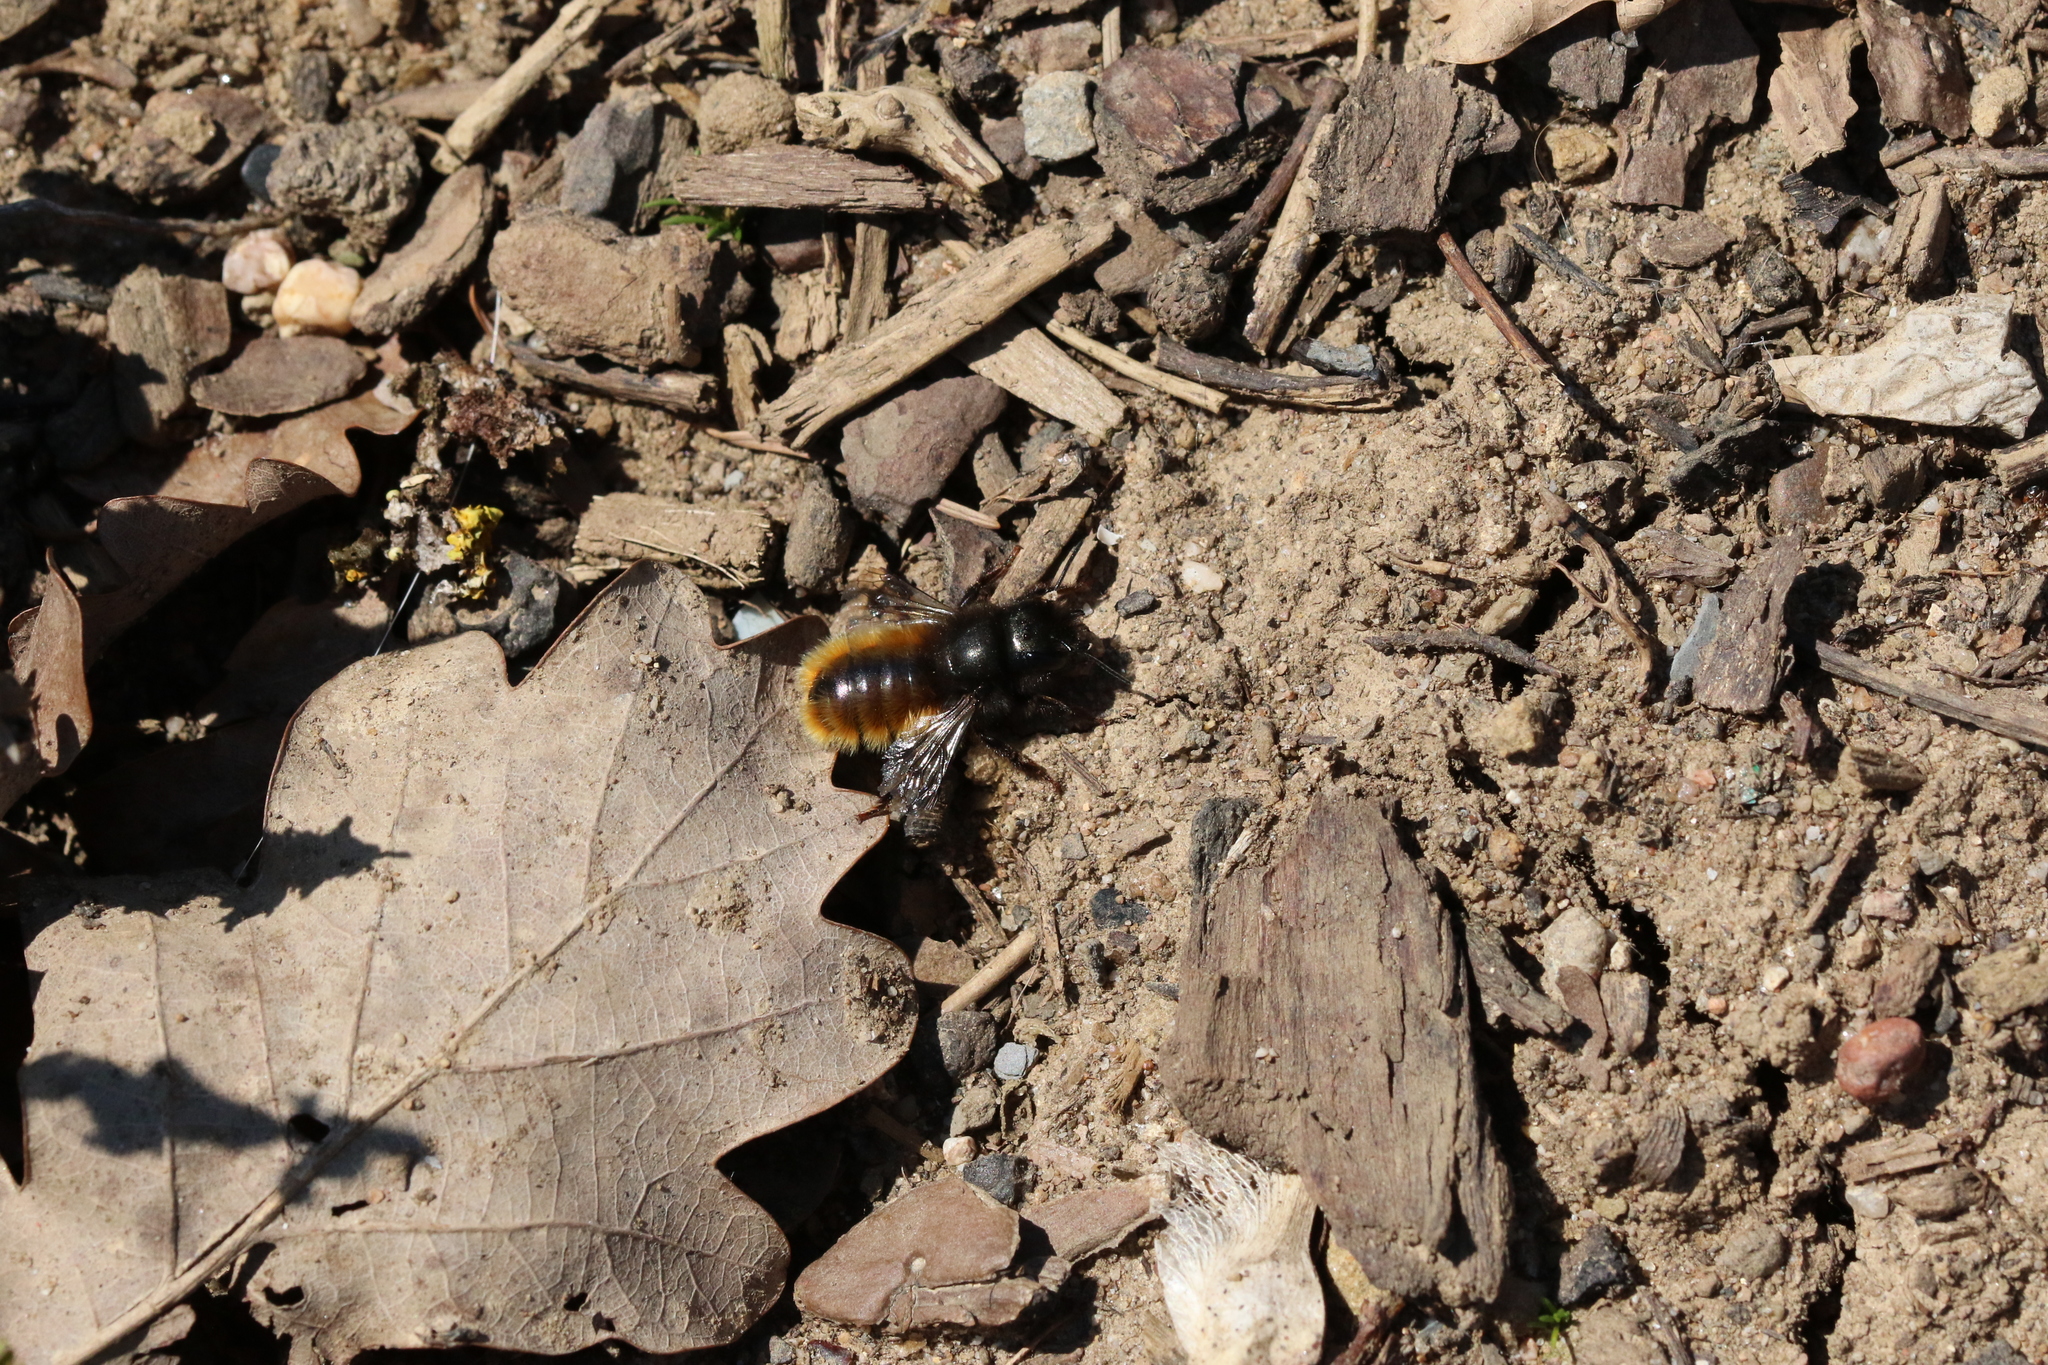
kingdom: Animalia
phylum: Arthropoda
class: Insecta
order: Hymenoptera
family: Megachilidae
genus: Osmia
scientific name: Osmia cornuta
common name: Mason bee
